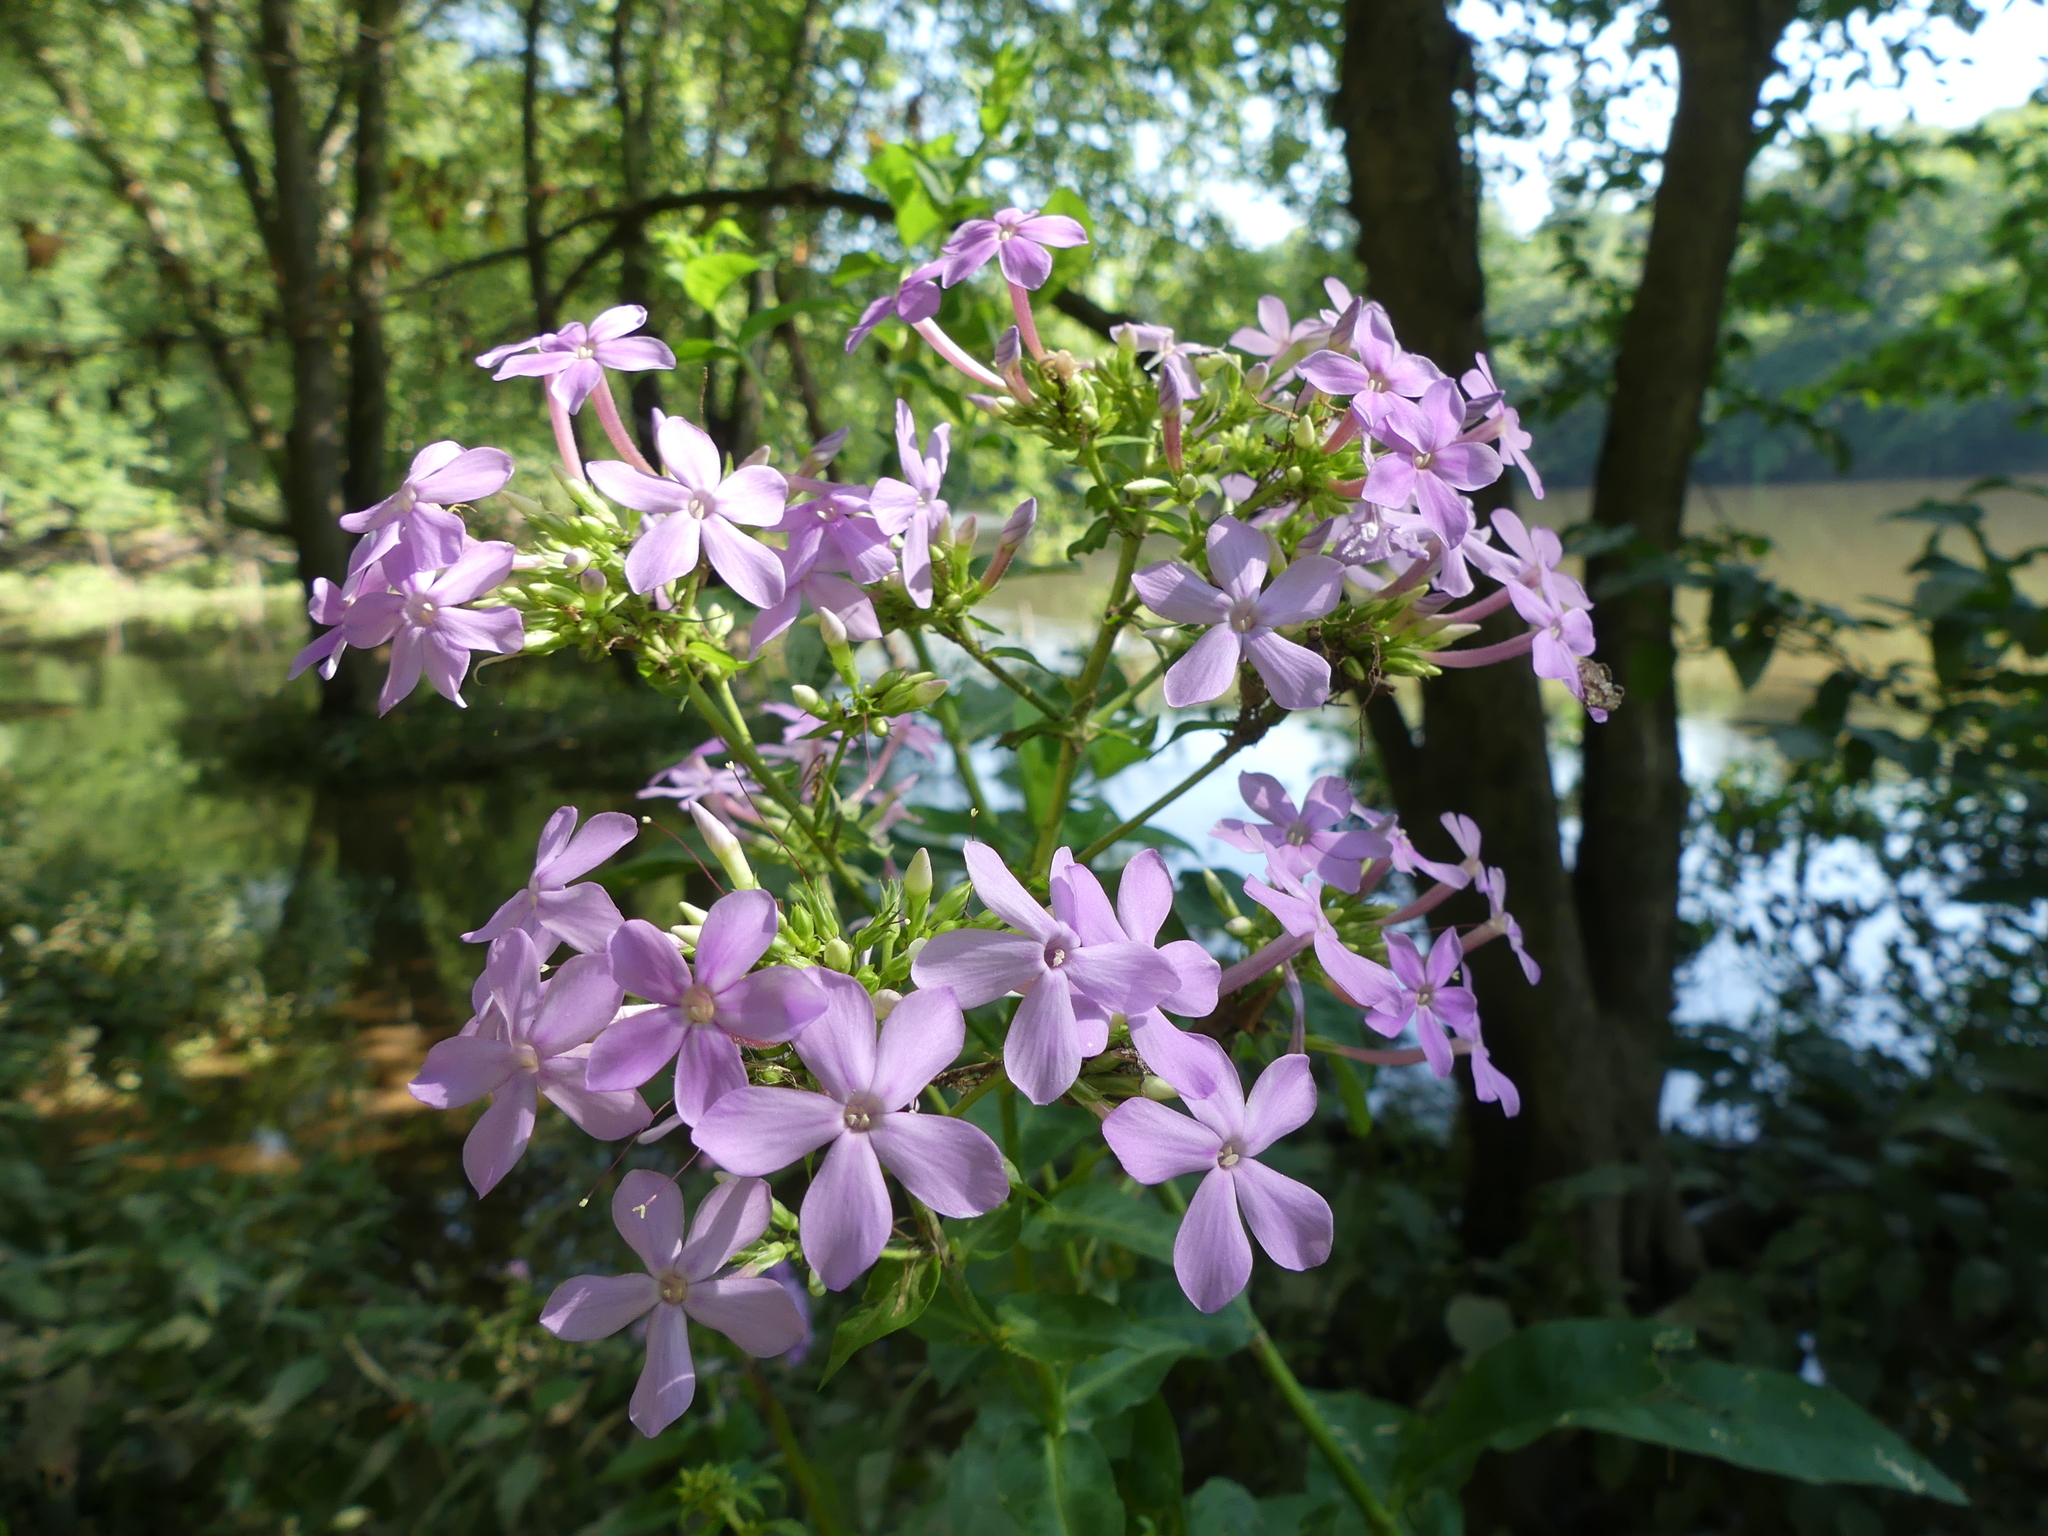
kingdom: Plantae
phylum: Tracheophyta
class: Magnoliopsida
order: Ericales
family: Polemoniaceae
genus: Phlox
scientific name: Phlox paniculata
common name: Fall phlox
